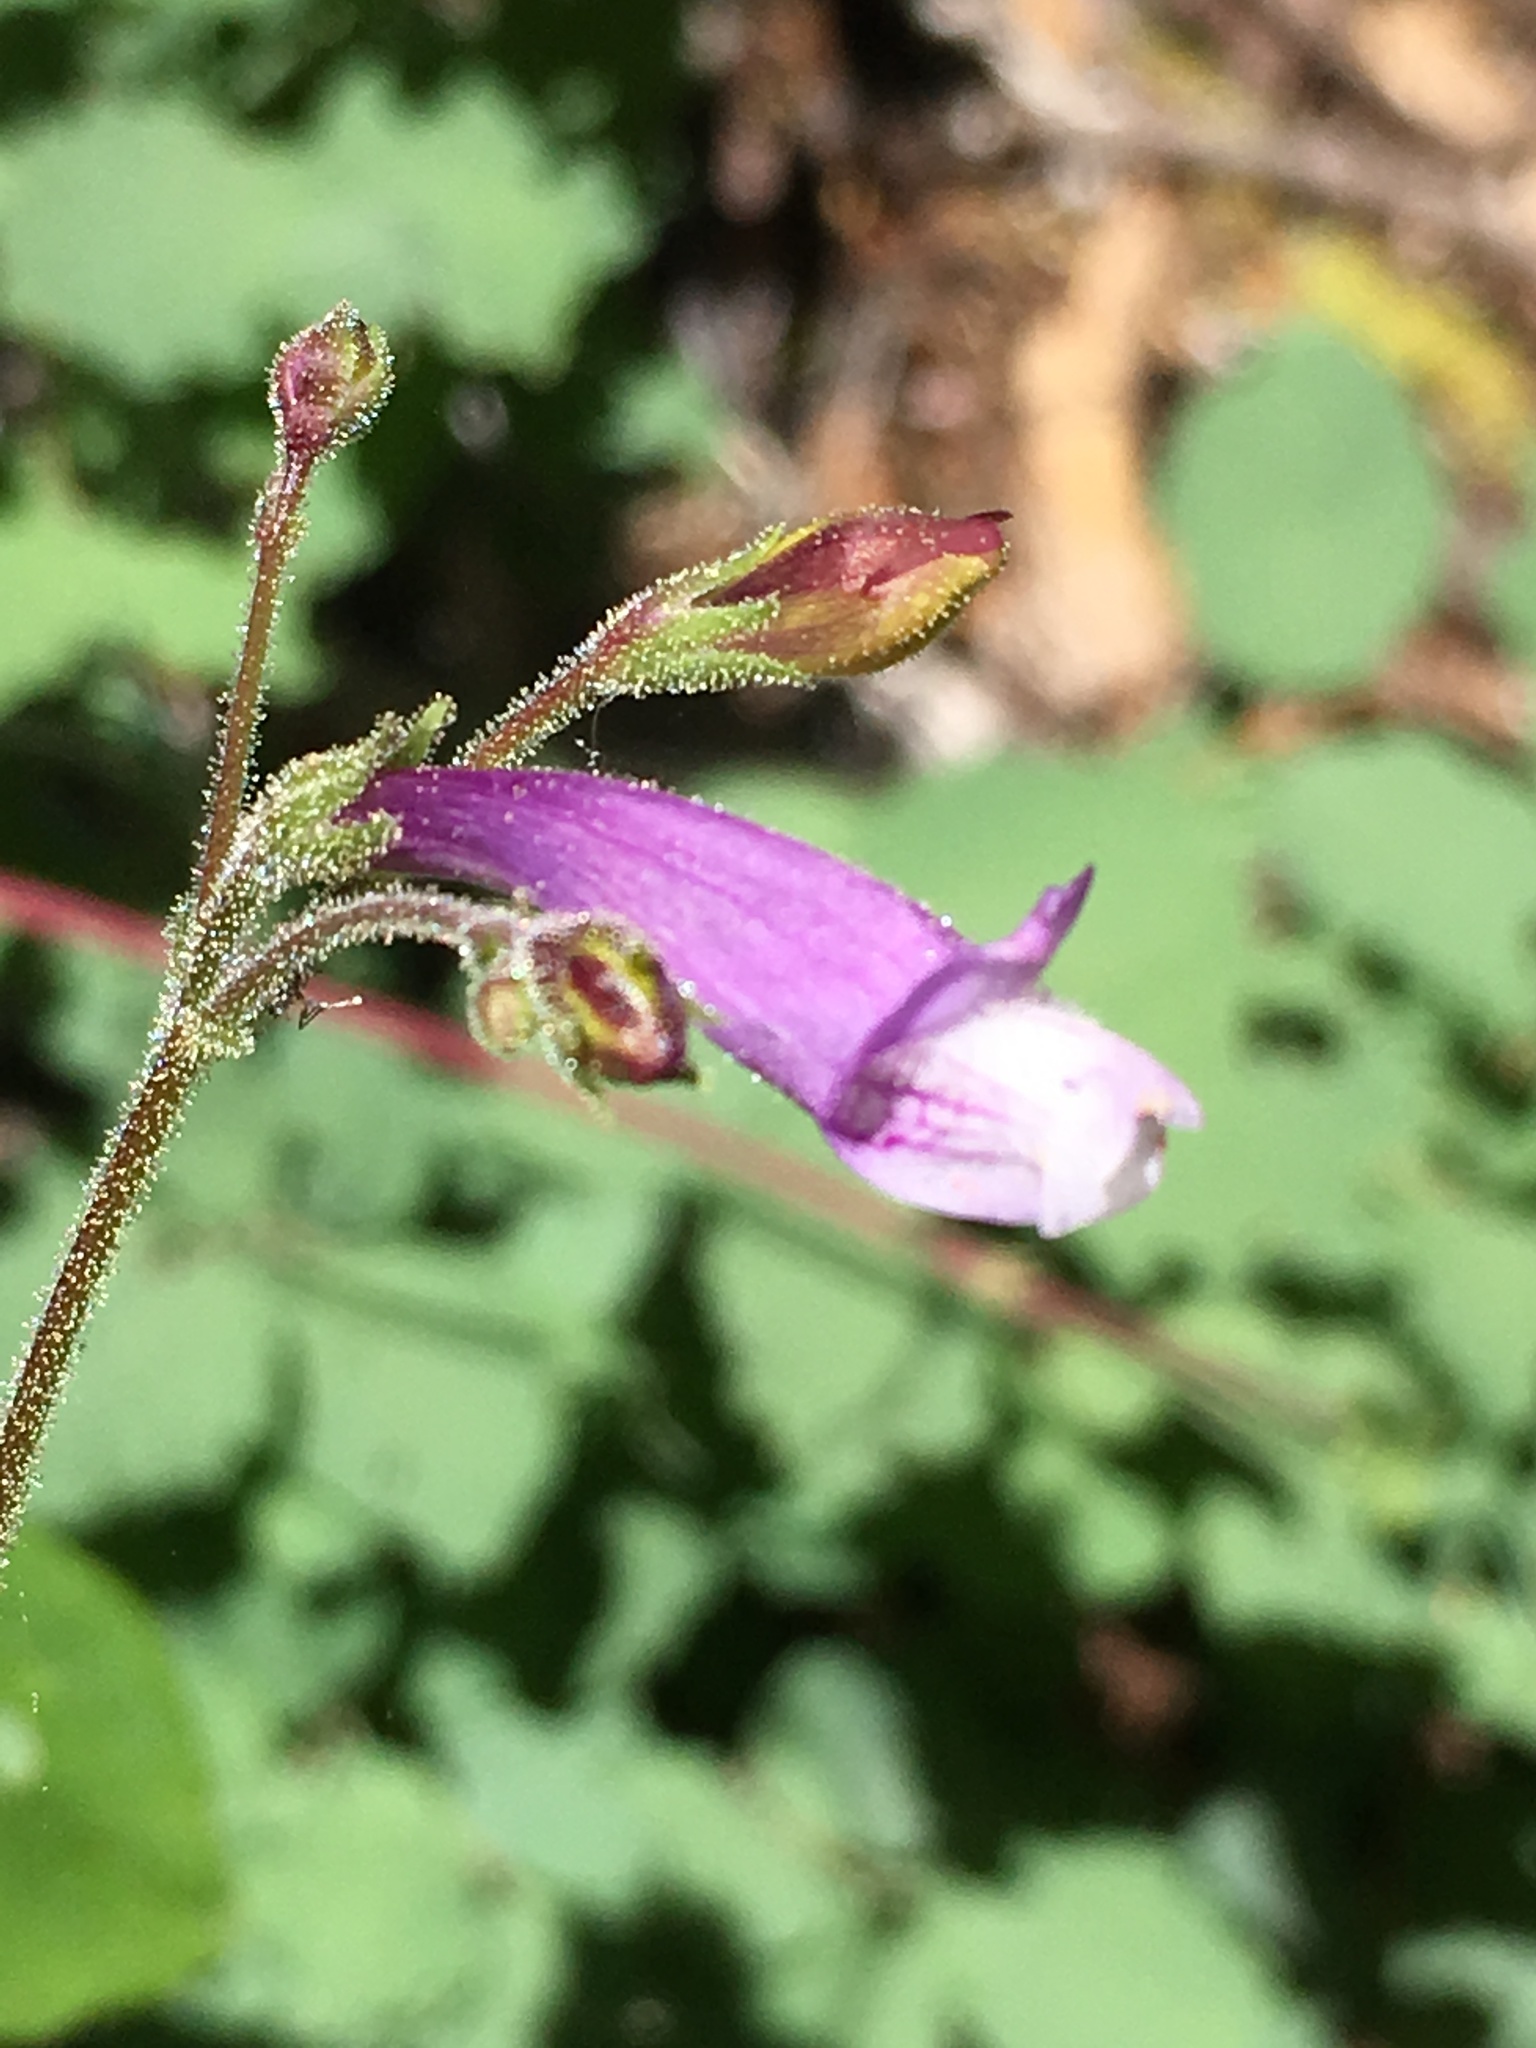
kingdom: Plantae
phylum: Tracheophyta
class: Magnoliopsida
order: Lamiales
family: Plantaginaceae
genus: Penstemon
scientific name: Penstemon personatus
